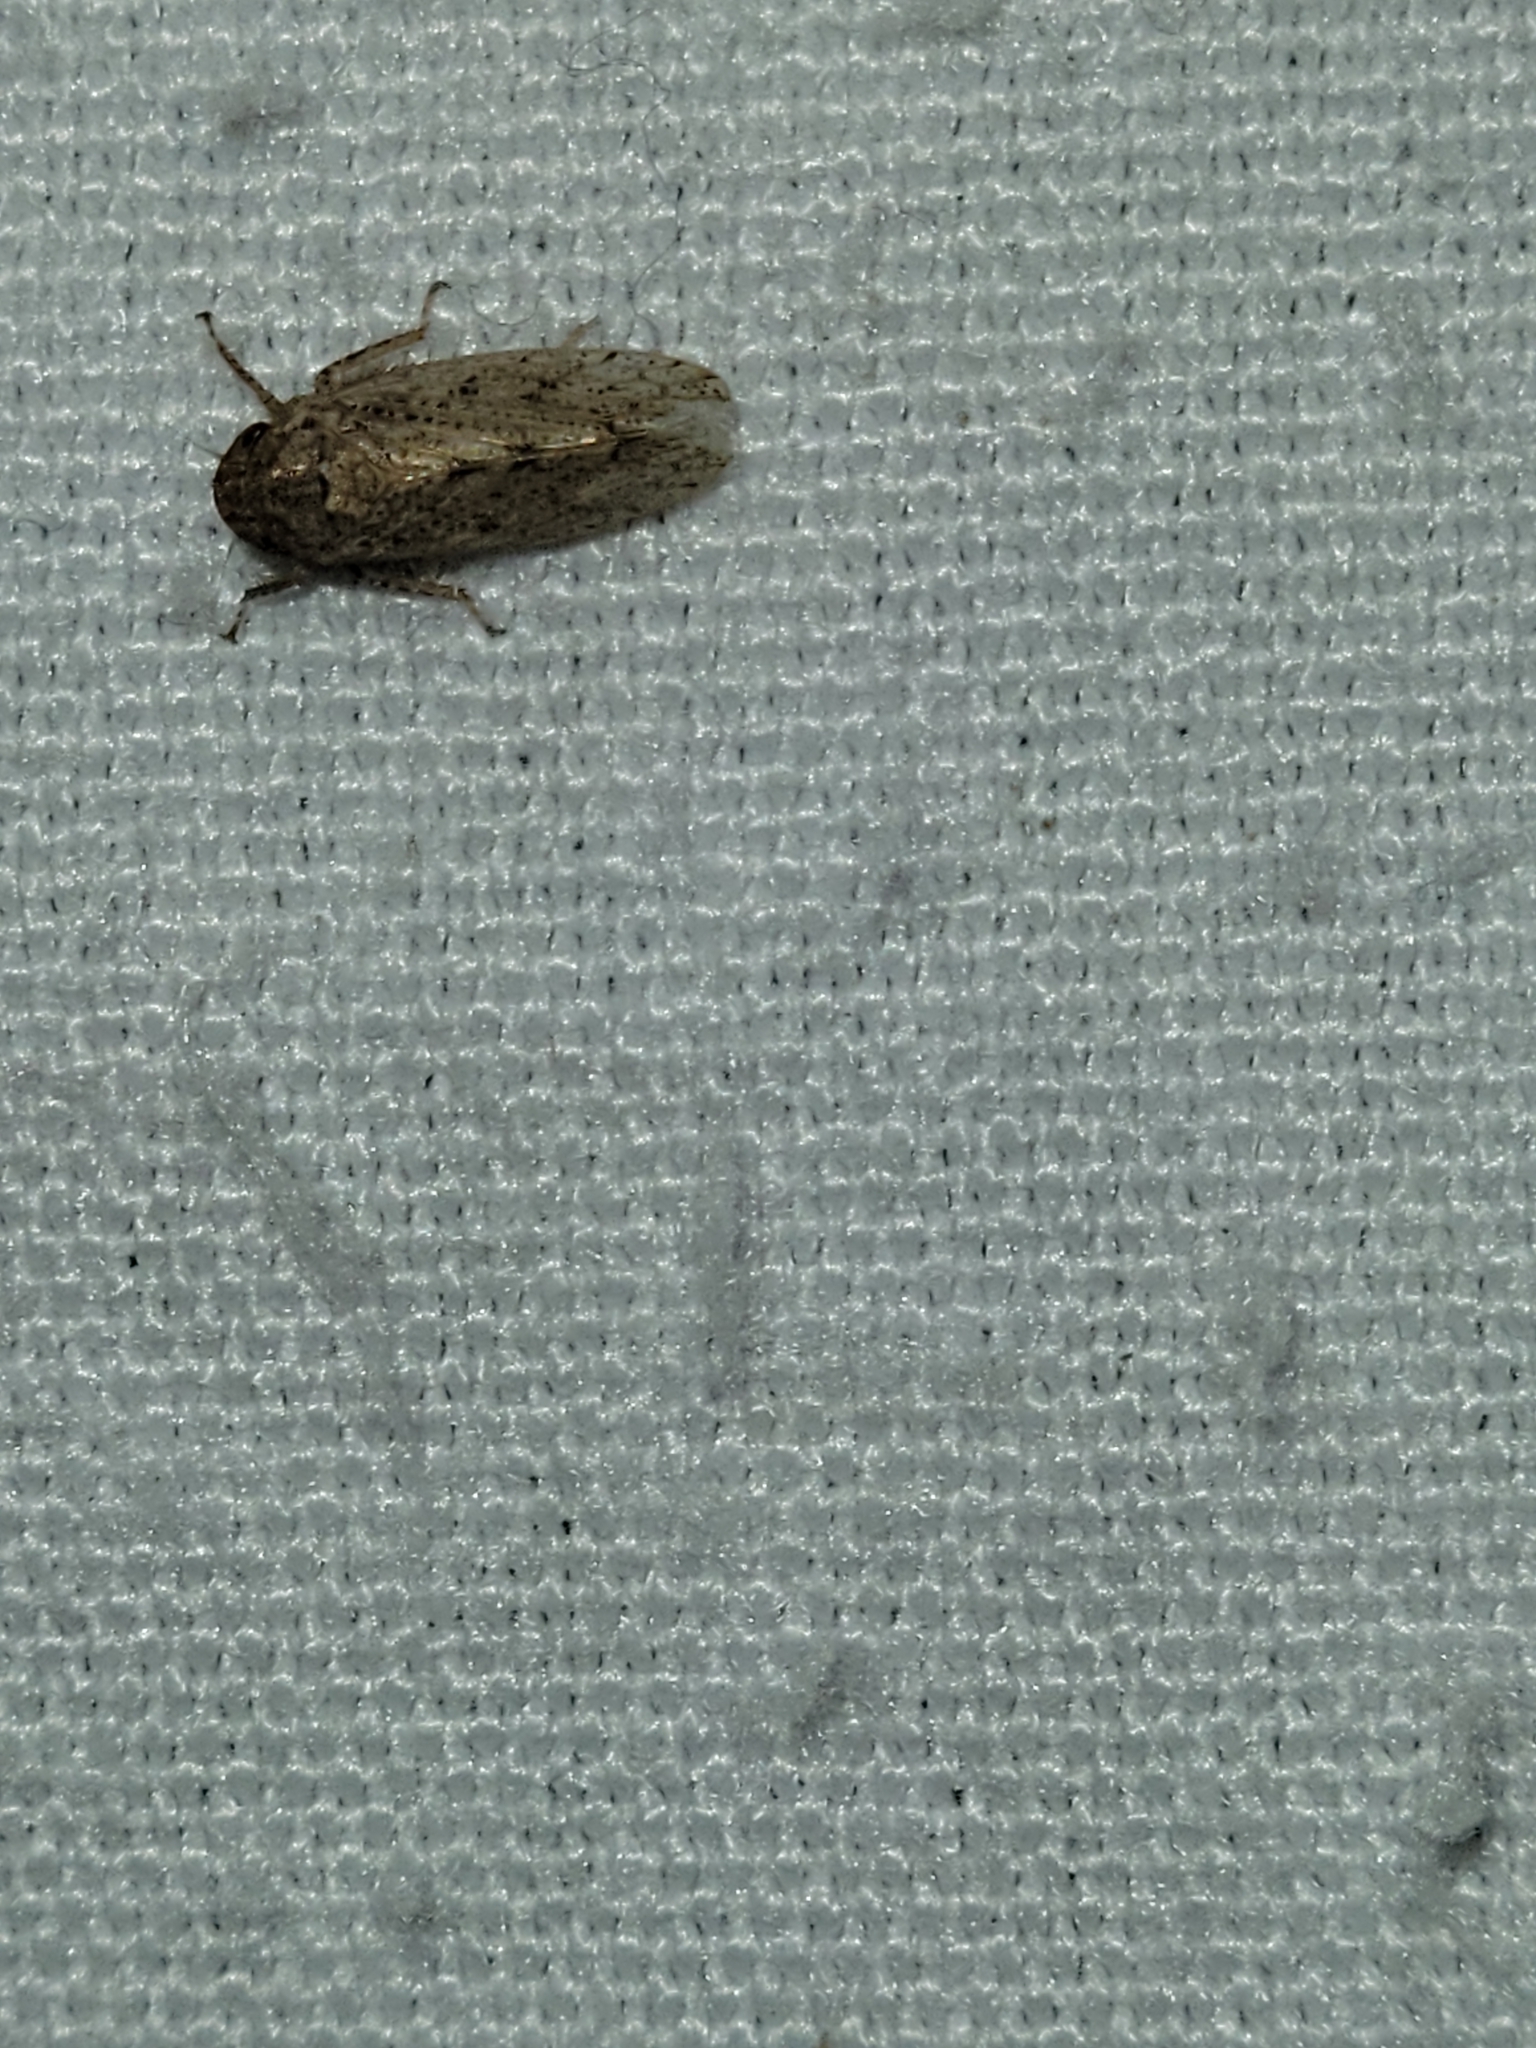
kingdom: Animalia
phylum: Arthropoda
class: Insecta
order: Hemiptera
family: Cicadellidae
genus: Curtara
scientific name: Curtara insularis
